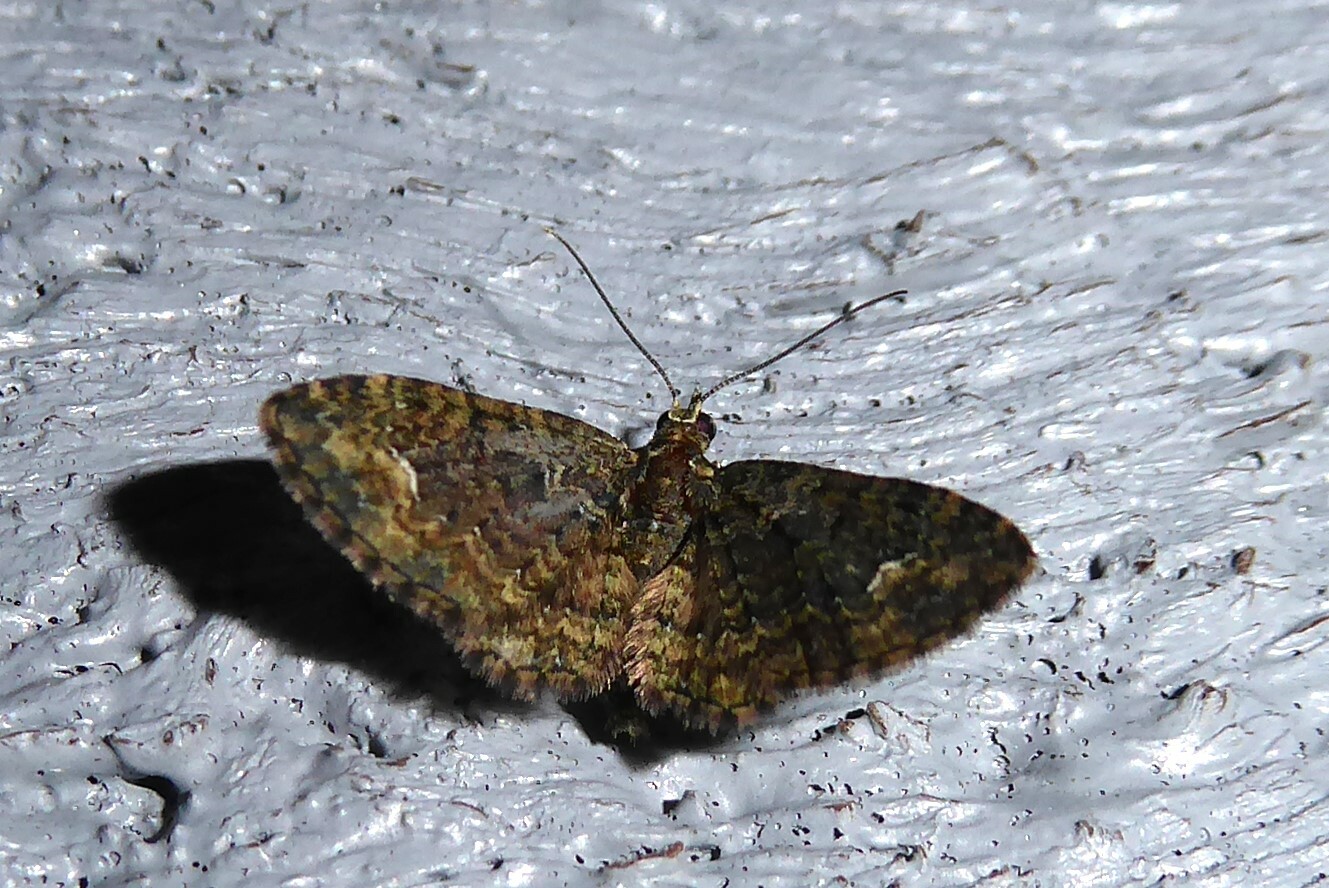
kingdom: Animalia
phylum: Arthropoda
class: Insecta
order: Lepidoptera
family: Geometridae
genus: Pasiphilodes
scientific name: Pasiphilodes testulata
